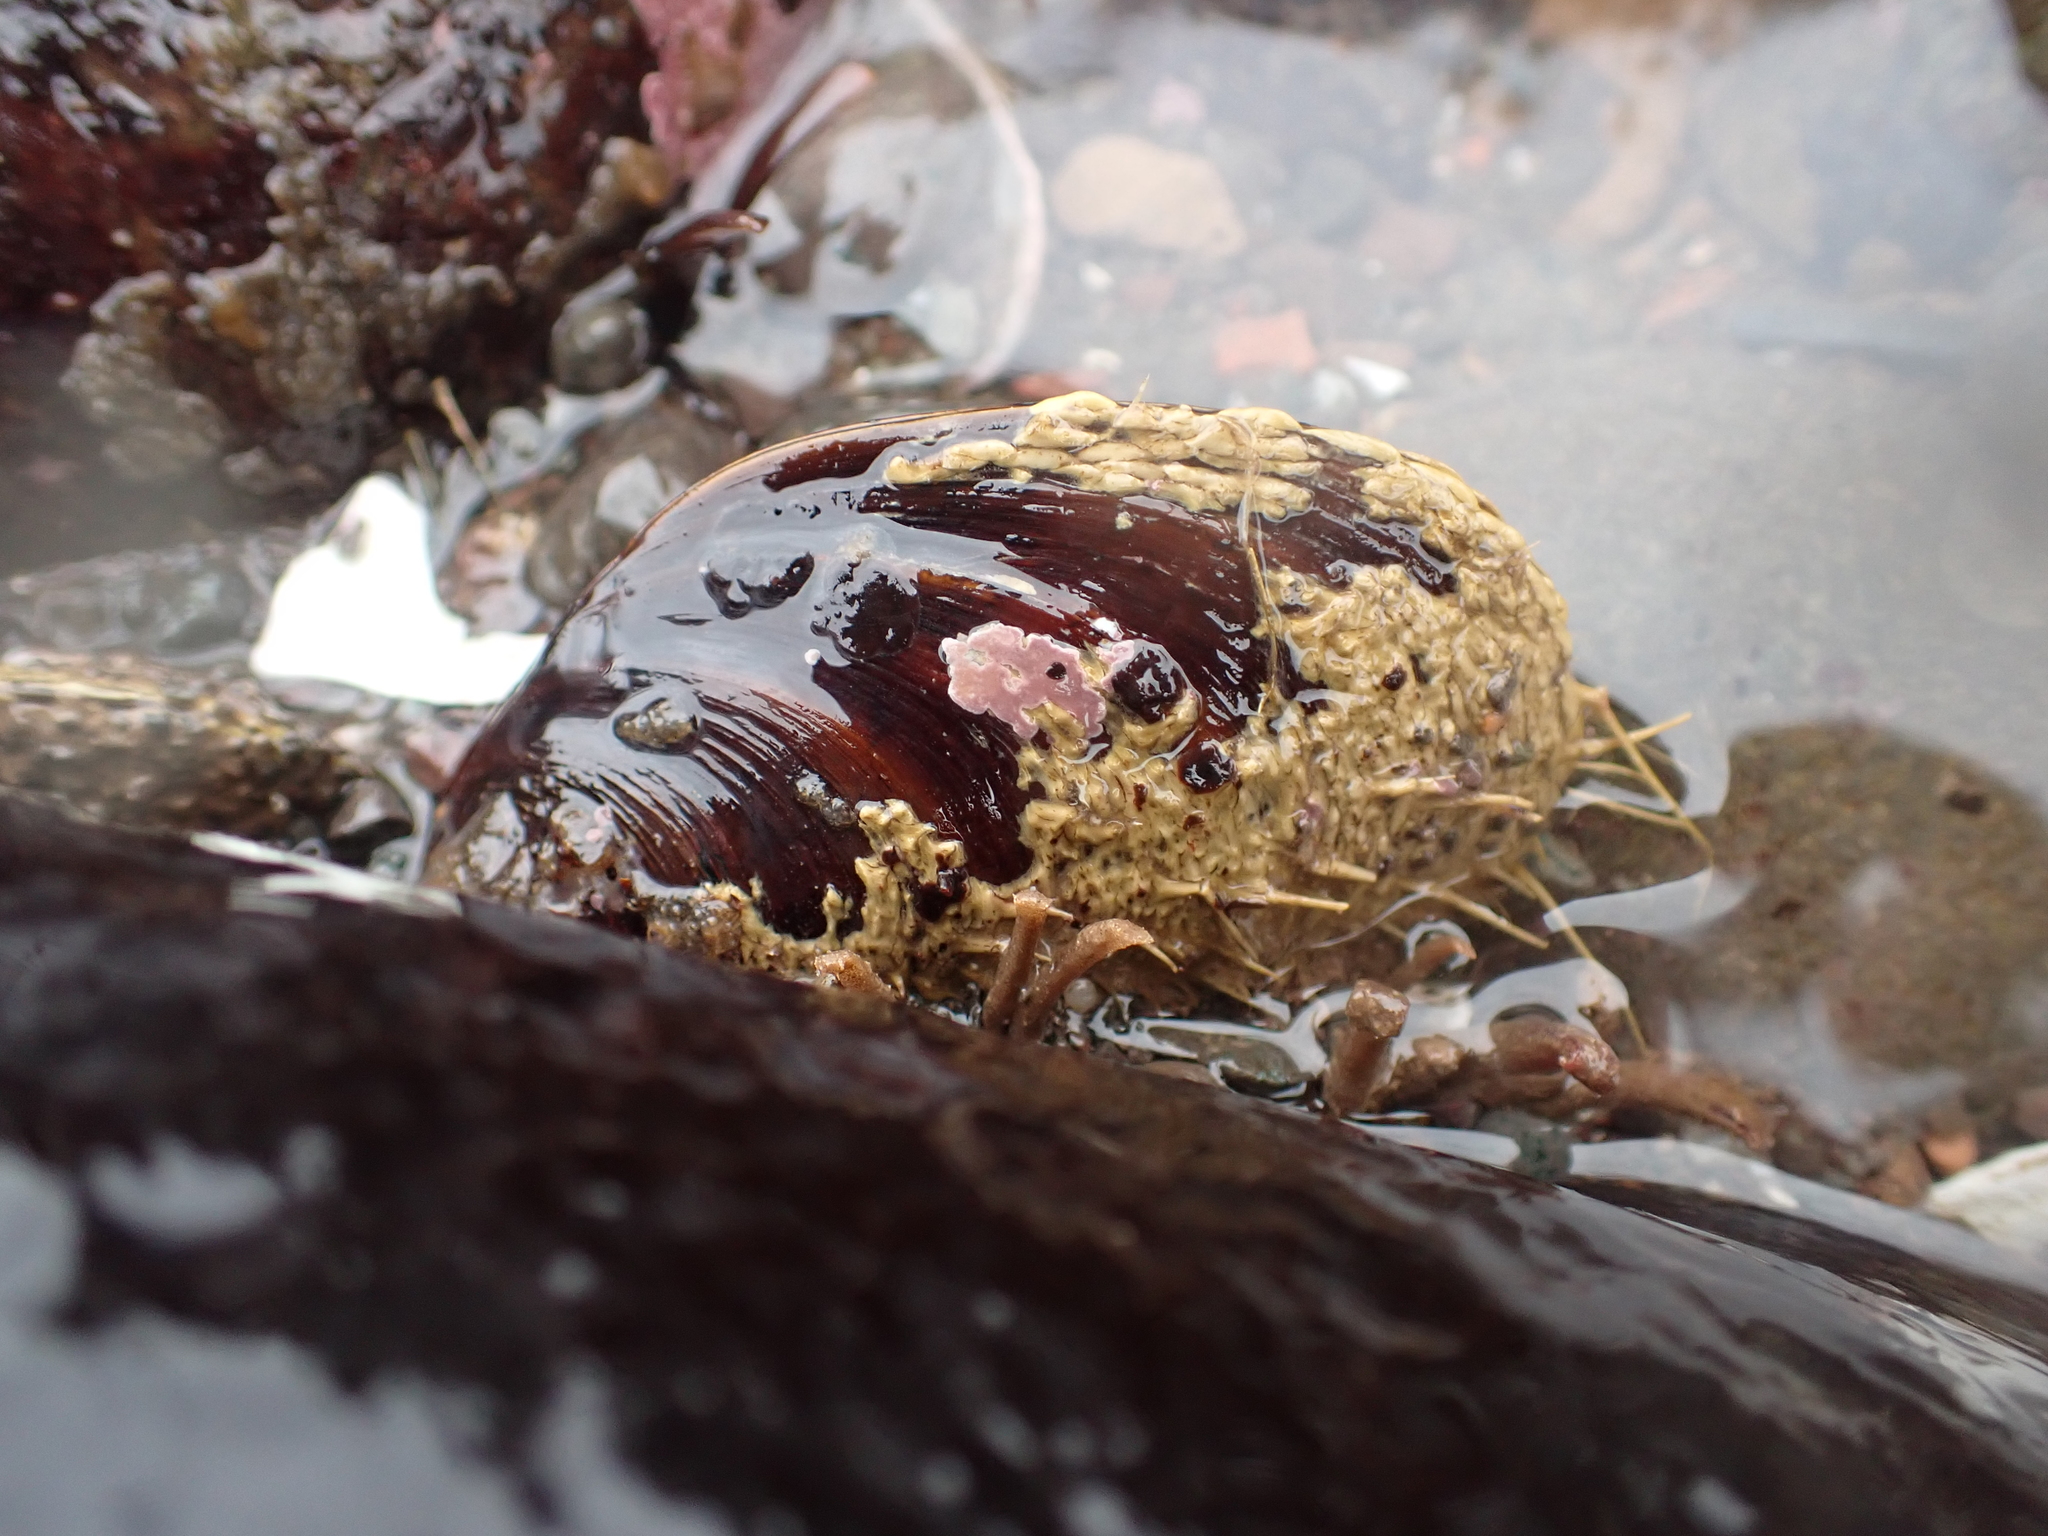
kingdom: Animalia
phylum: Mollusca
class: Bivalvia
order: Mytilida
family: Mytilidae
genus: Modiolus
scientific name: Modiolus modiolus
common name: Horse-mussel
